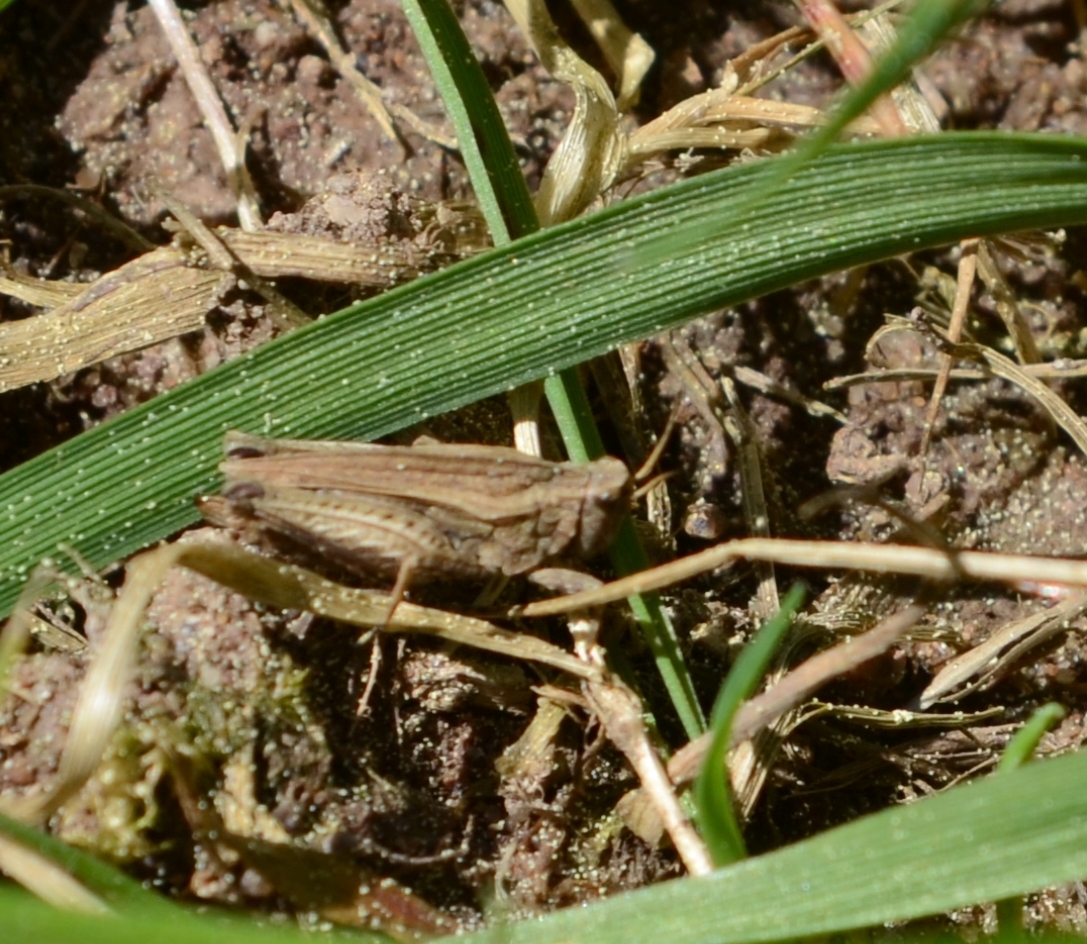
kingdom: Animalia
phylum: Arthropoda
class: Insecta
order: Orthoptera
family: Tetrigidae
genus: Tetrix
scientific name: Tetrix undulata
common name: Common groundhopper
